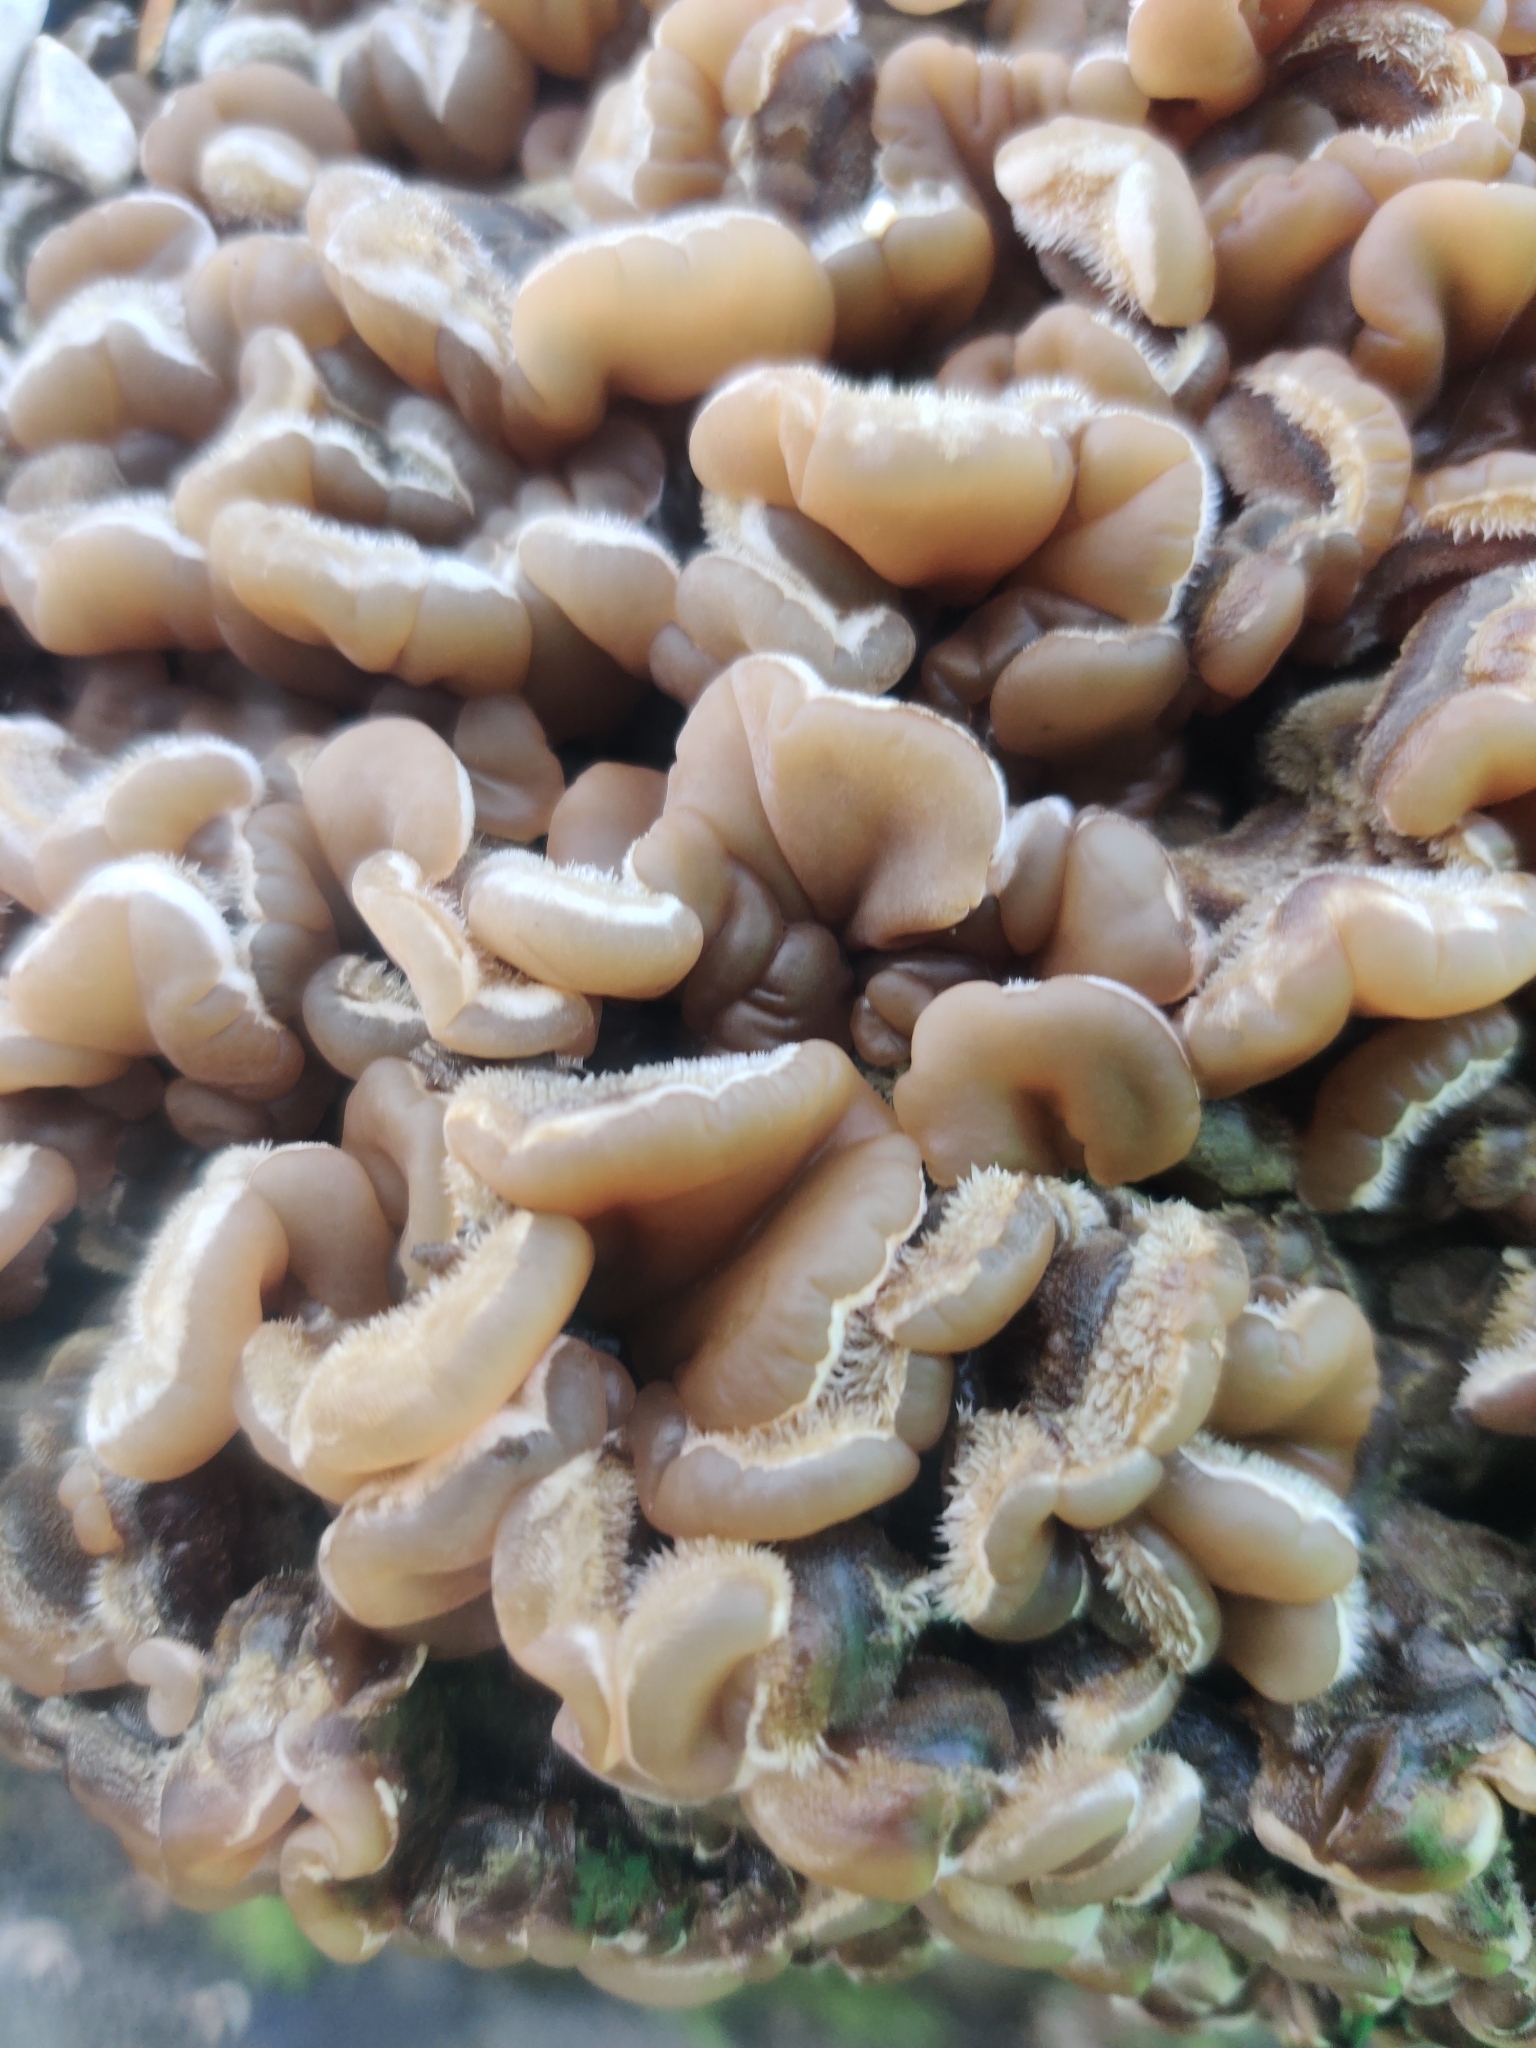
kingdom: Fungi
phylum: Basidiomycota
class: Agaricomycetes
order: Auriculariales
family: Auriculariaceae
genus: Auricularia
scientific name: Auricularia mesenterica
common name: Tripe fungus
